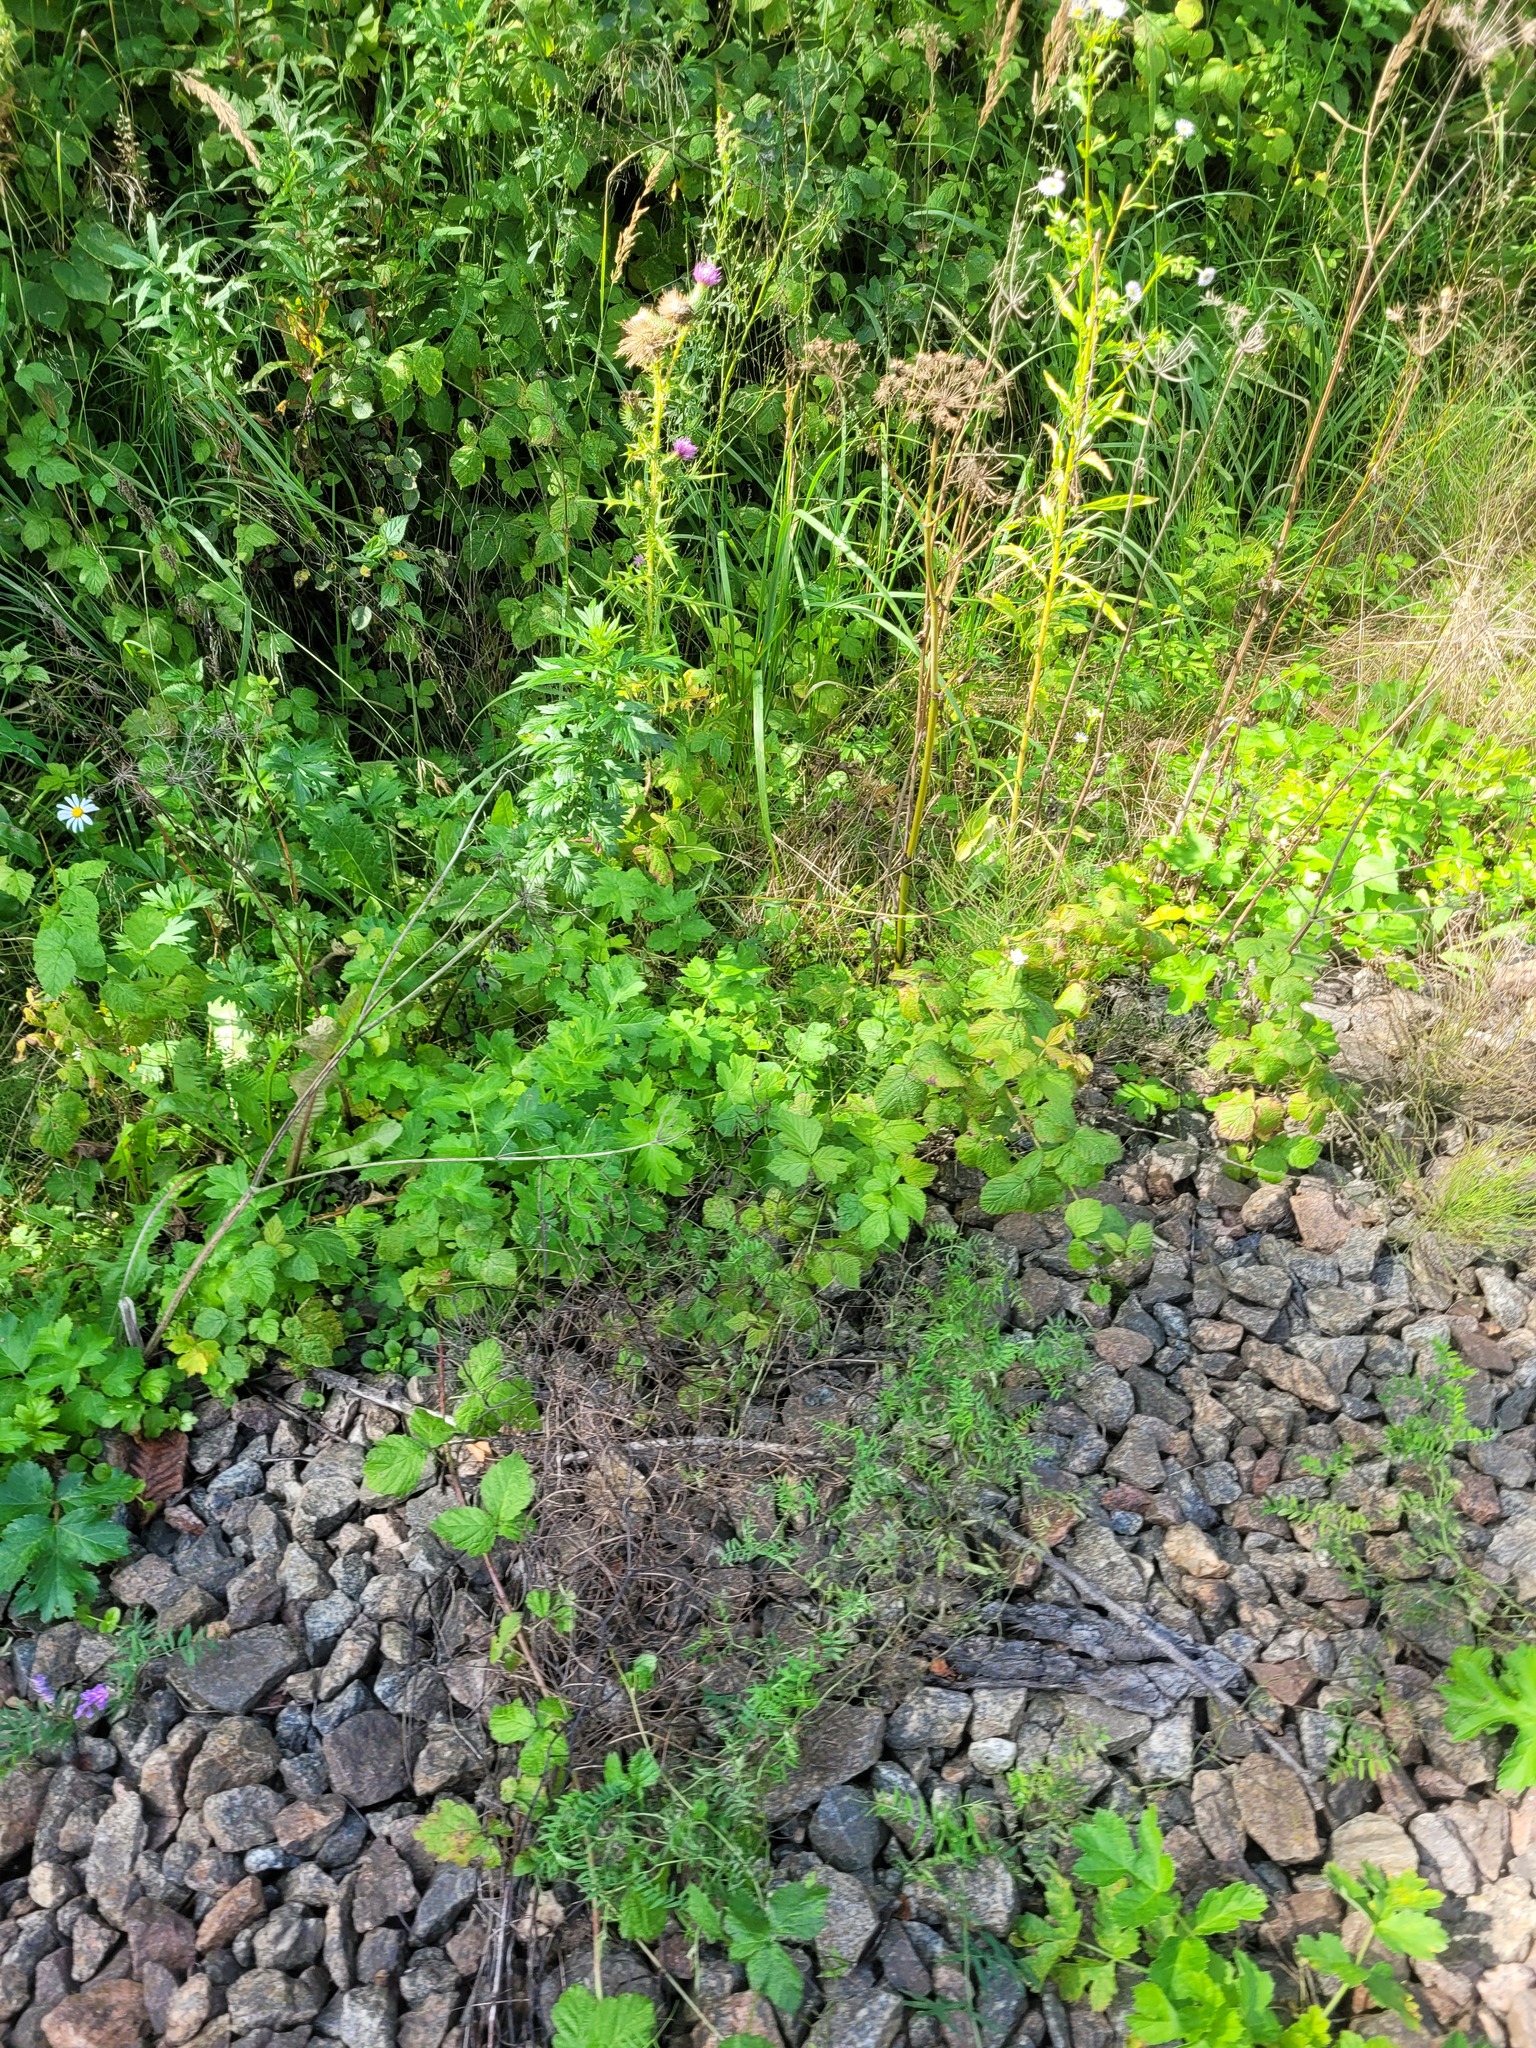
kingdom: Plantae
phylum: Tracheophyta
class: Magnoliopsida
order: Rosales
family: Rosaceae
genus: Rubus
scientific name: Rubus caesius
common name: Dewberry
